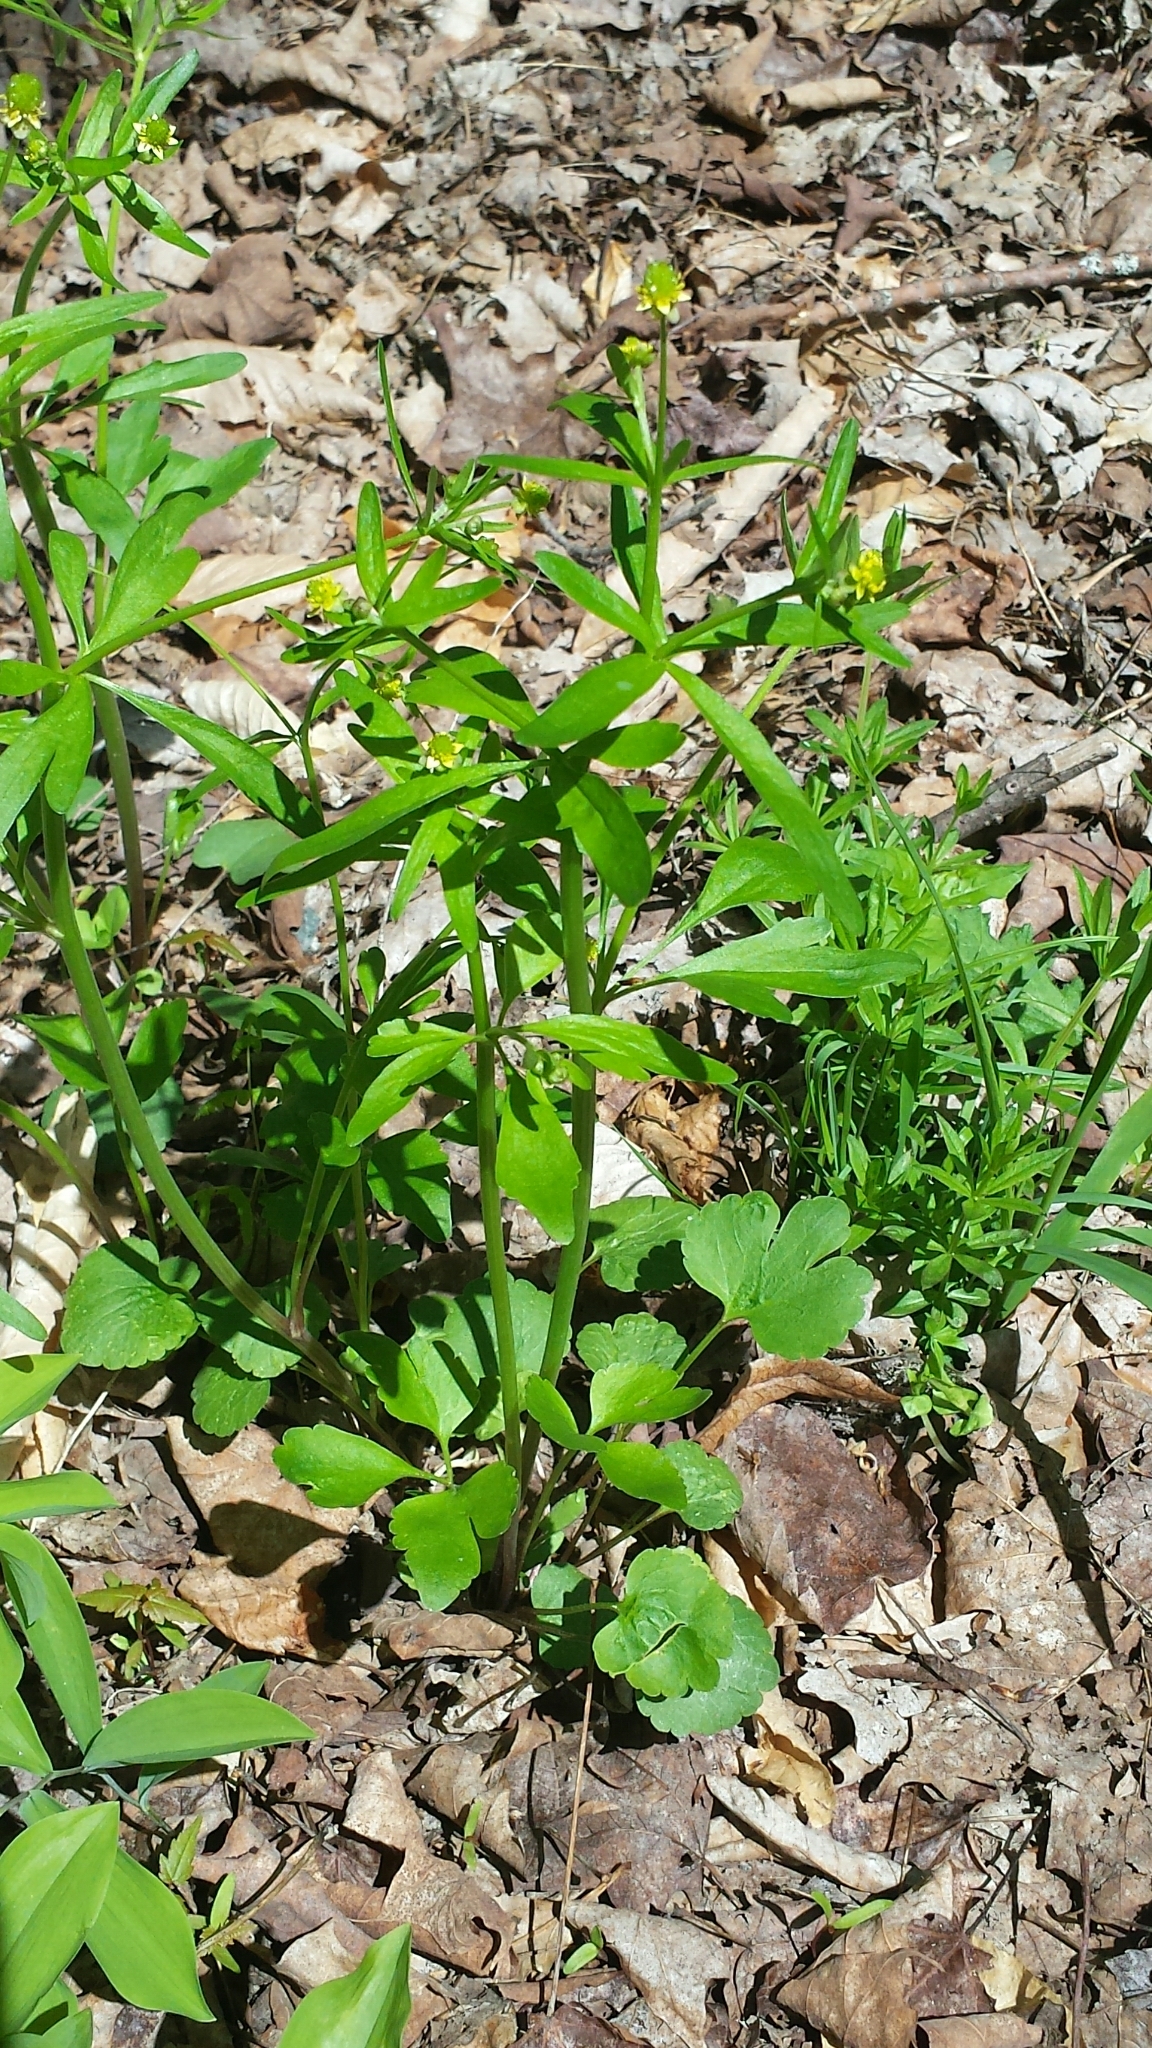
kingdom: Plantae
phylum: Tracheophyta
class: Magnoliopsida
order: Ranunculales
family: Ranunculaceae
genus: Ranunculus
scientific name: Ranunculus abortivus
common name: Early wood buttercup
